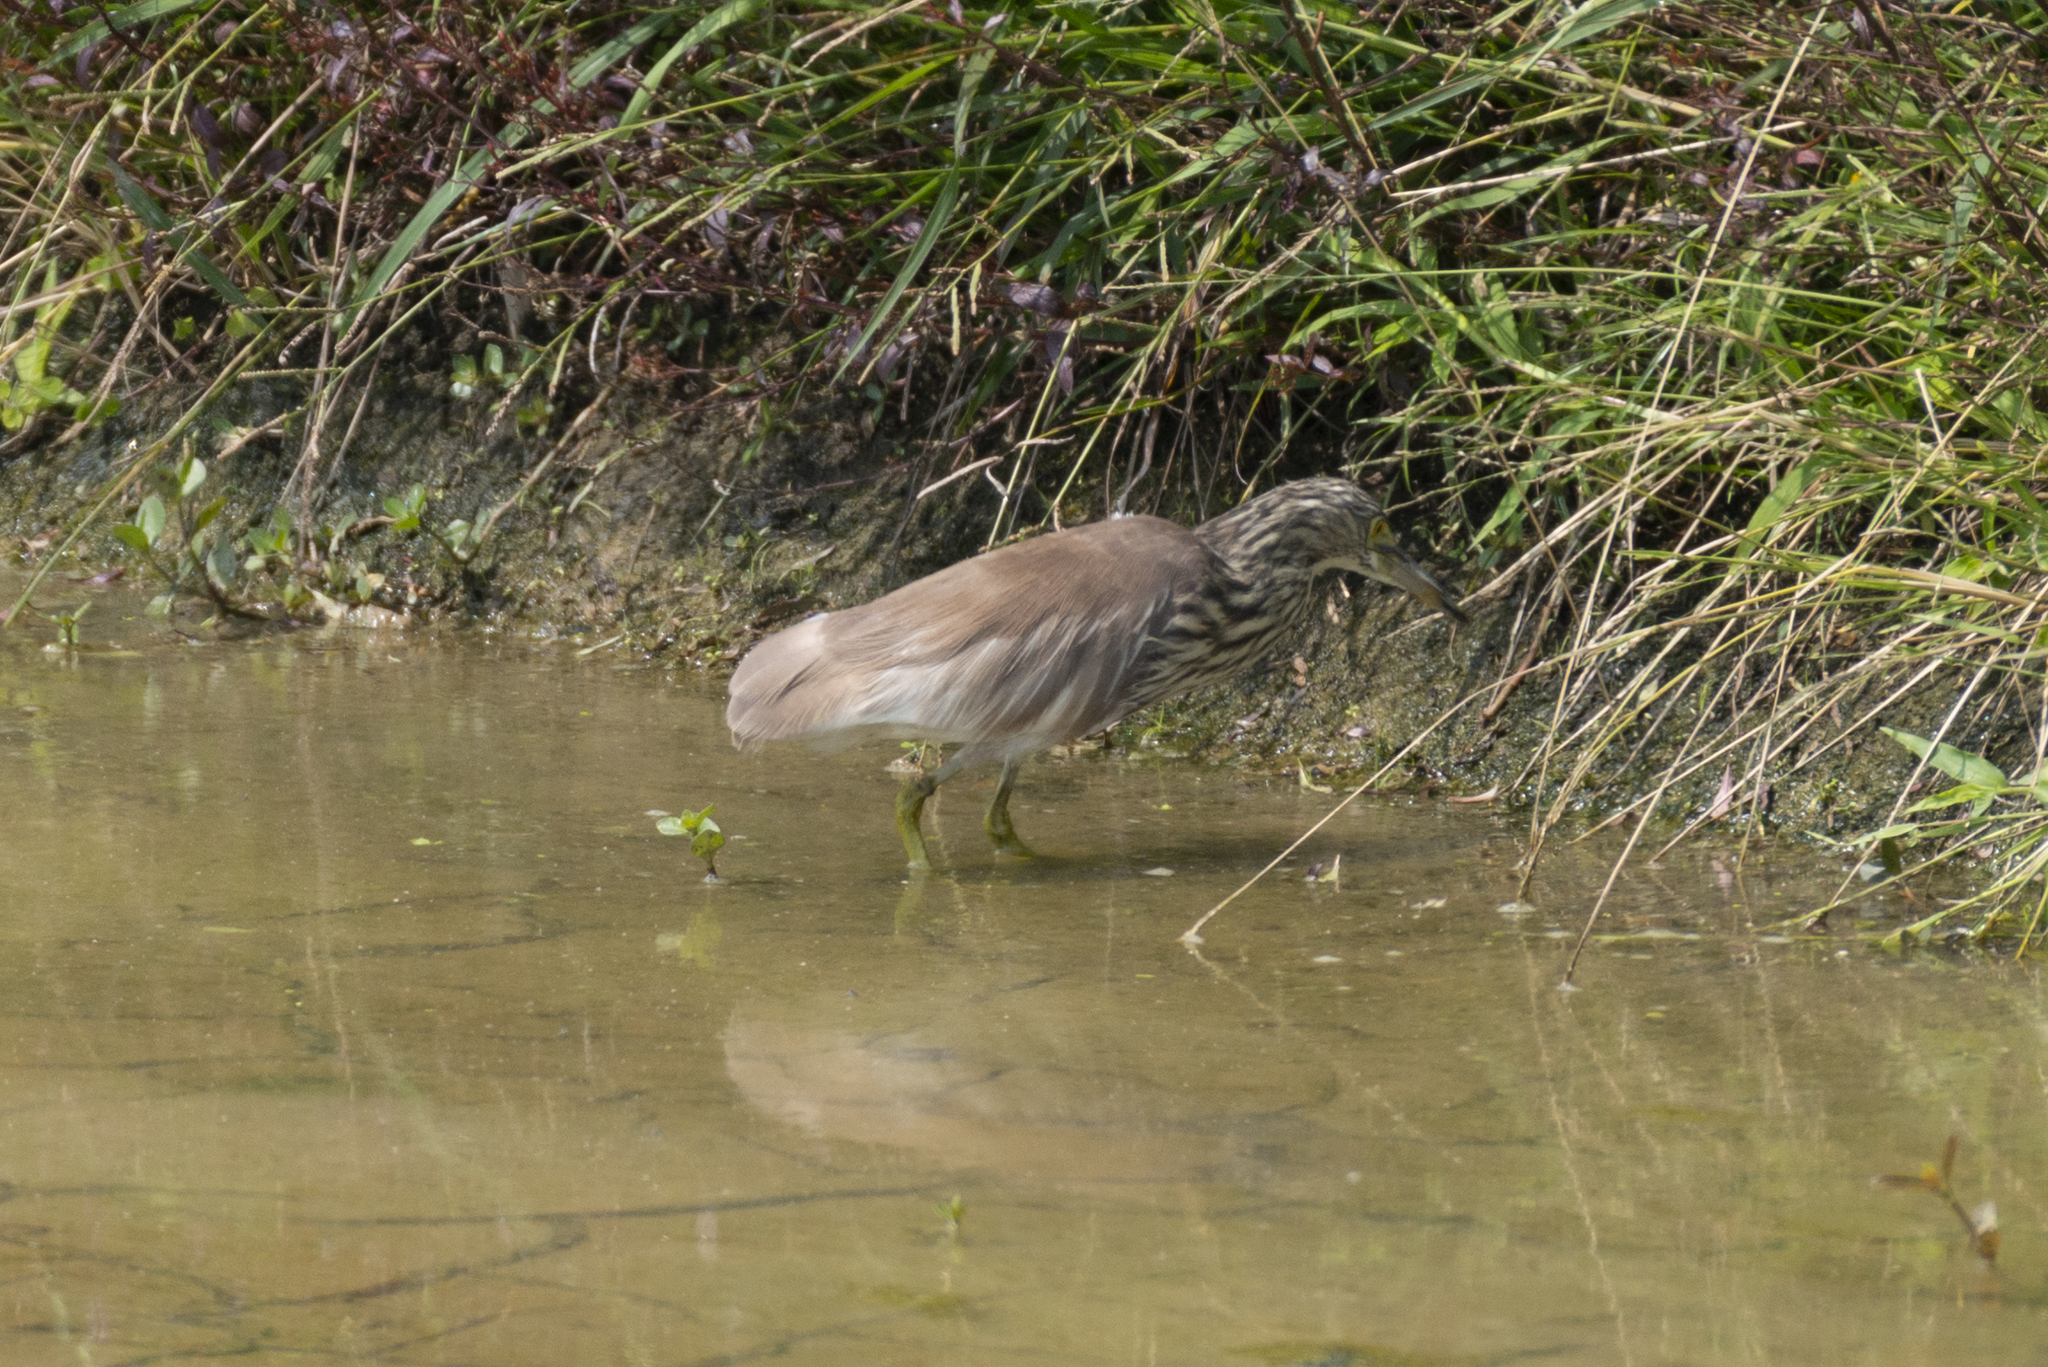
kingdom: Animalia
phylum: Chordata
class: Aves
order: Pelecaniformes
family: Ardeidae
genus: Ardeola
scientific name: Ardeola bacchus
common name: Chinese pond heron
